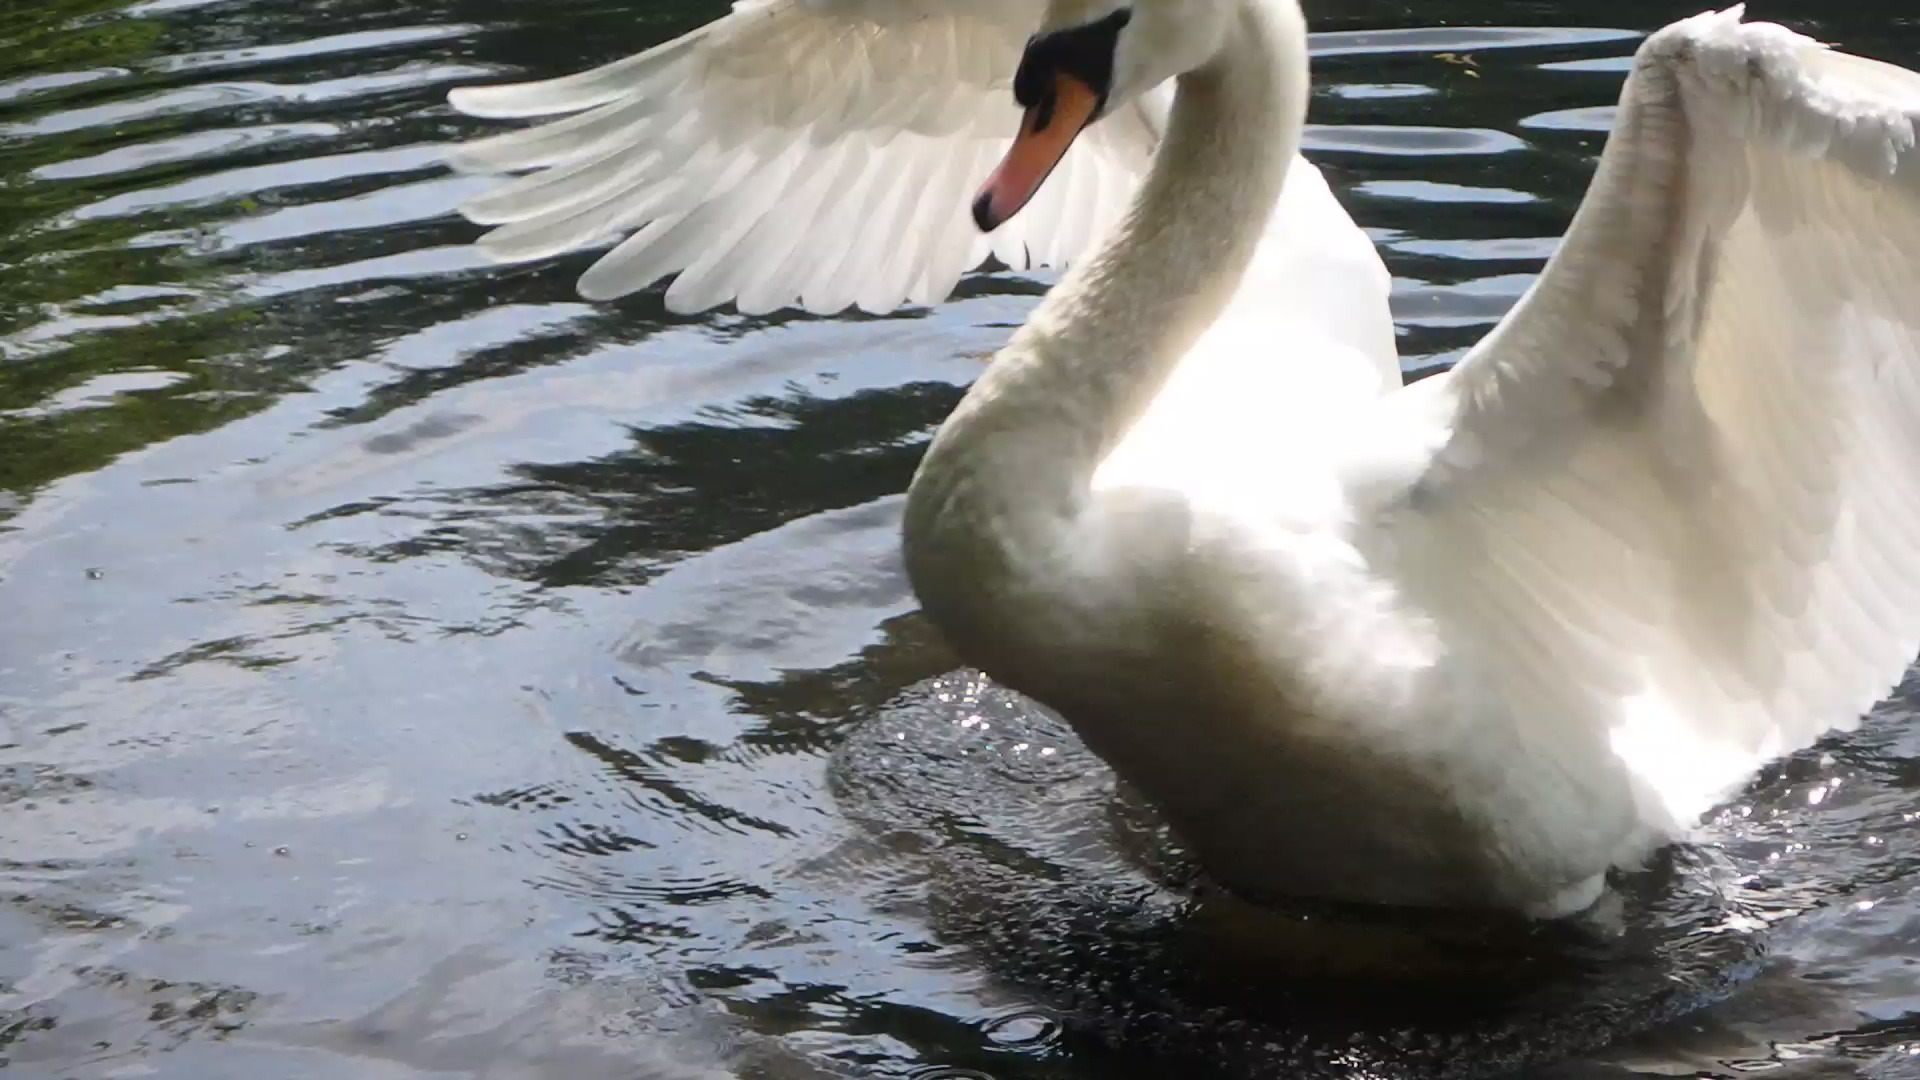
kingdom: Animalia
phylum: Chordata
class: Aves
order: Anseriformes
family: Anatidae
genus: Cygnus
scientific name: Cygnus olor
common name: Mute swan
